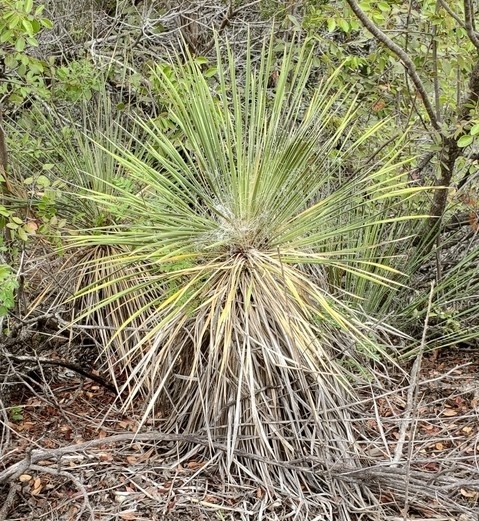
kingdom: Plantae
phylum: Tracheophyta
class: Liliopsida
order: Asparagales
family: Asparagaceae
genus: Yucca
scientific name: Yucca constricta
